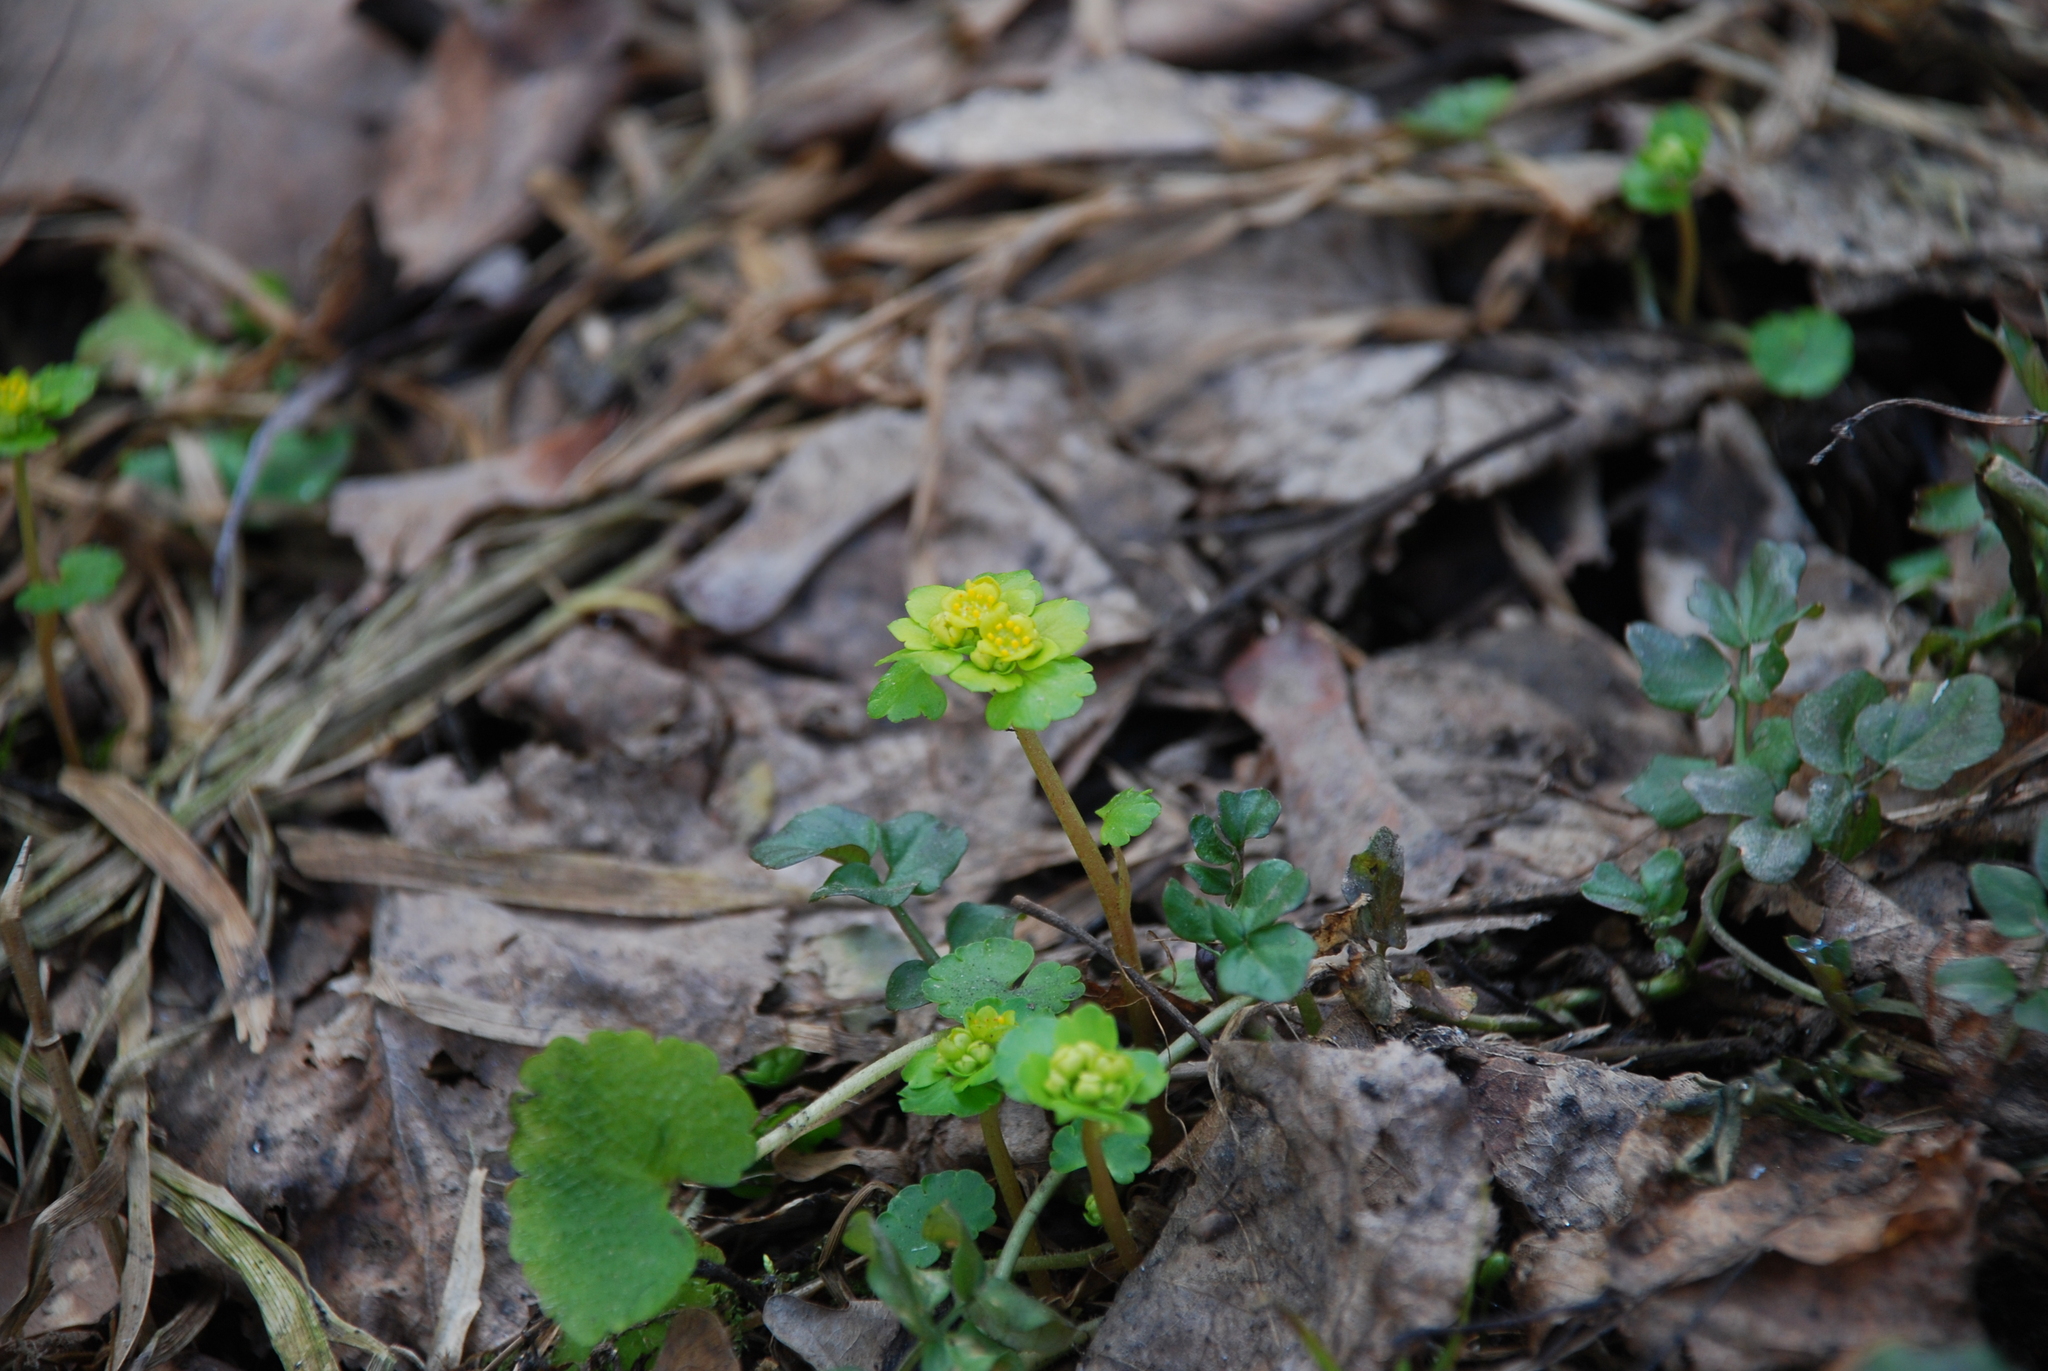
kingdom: Plantae
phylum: Tracheophyta
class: Magnoliopsida
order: Saxifragales
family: Saxifragaceae
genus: Chrysosplenium
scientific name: Chrysosplenium alternifolium
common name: Alternate-leaved golden-saxifrage
